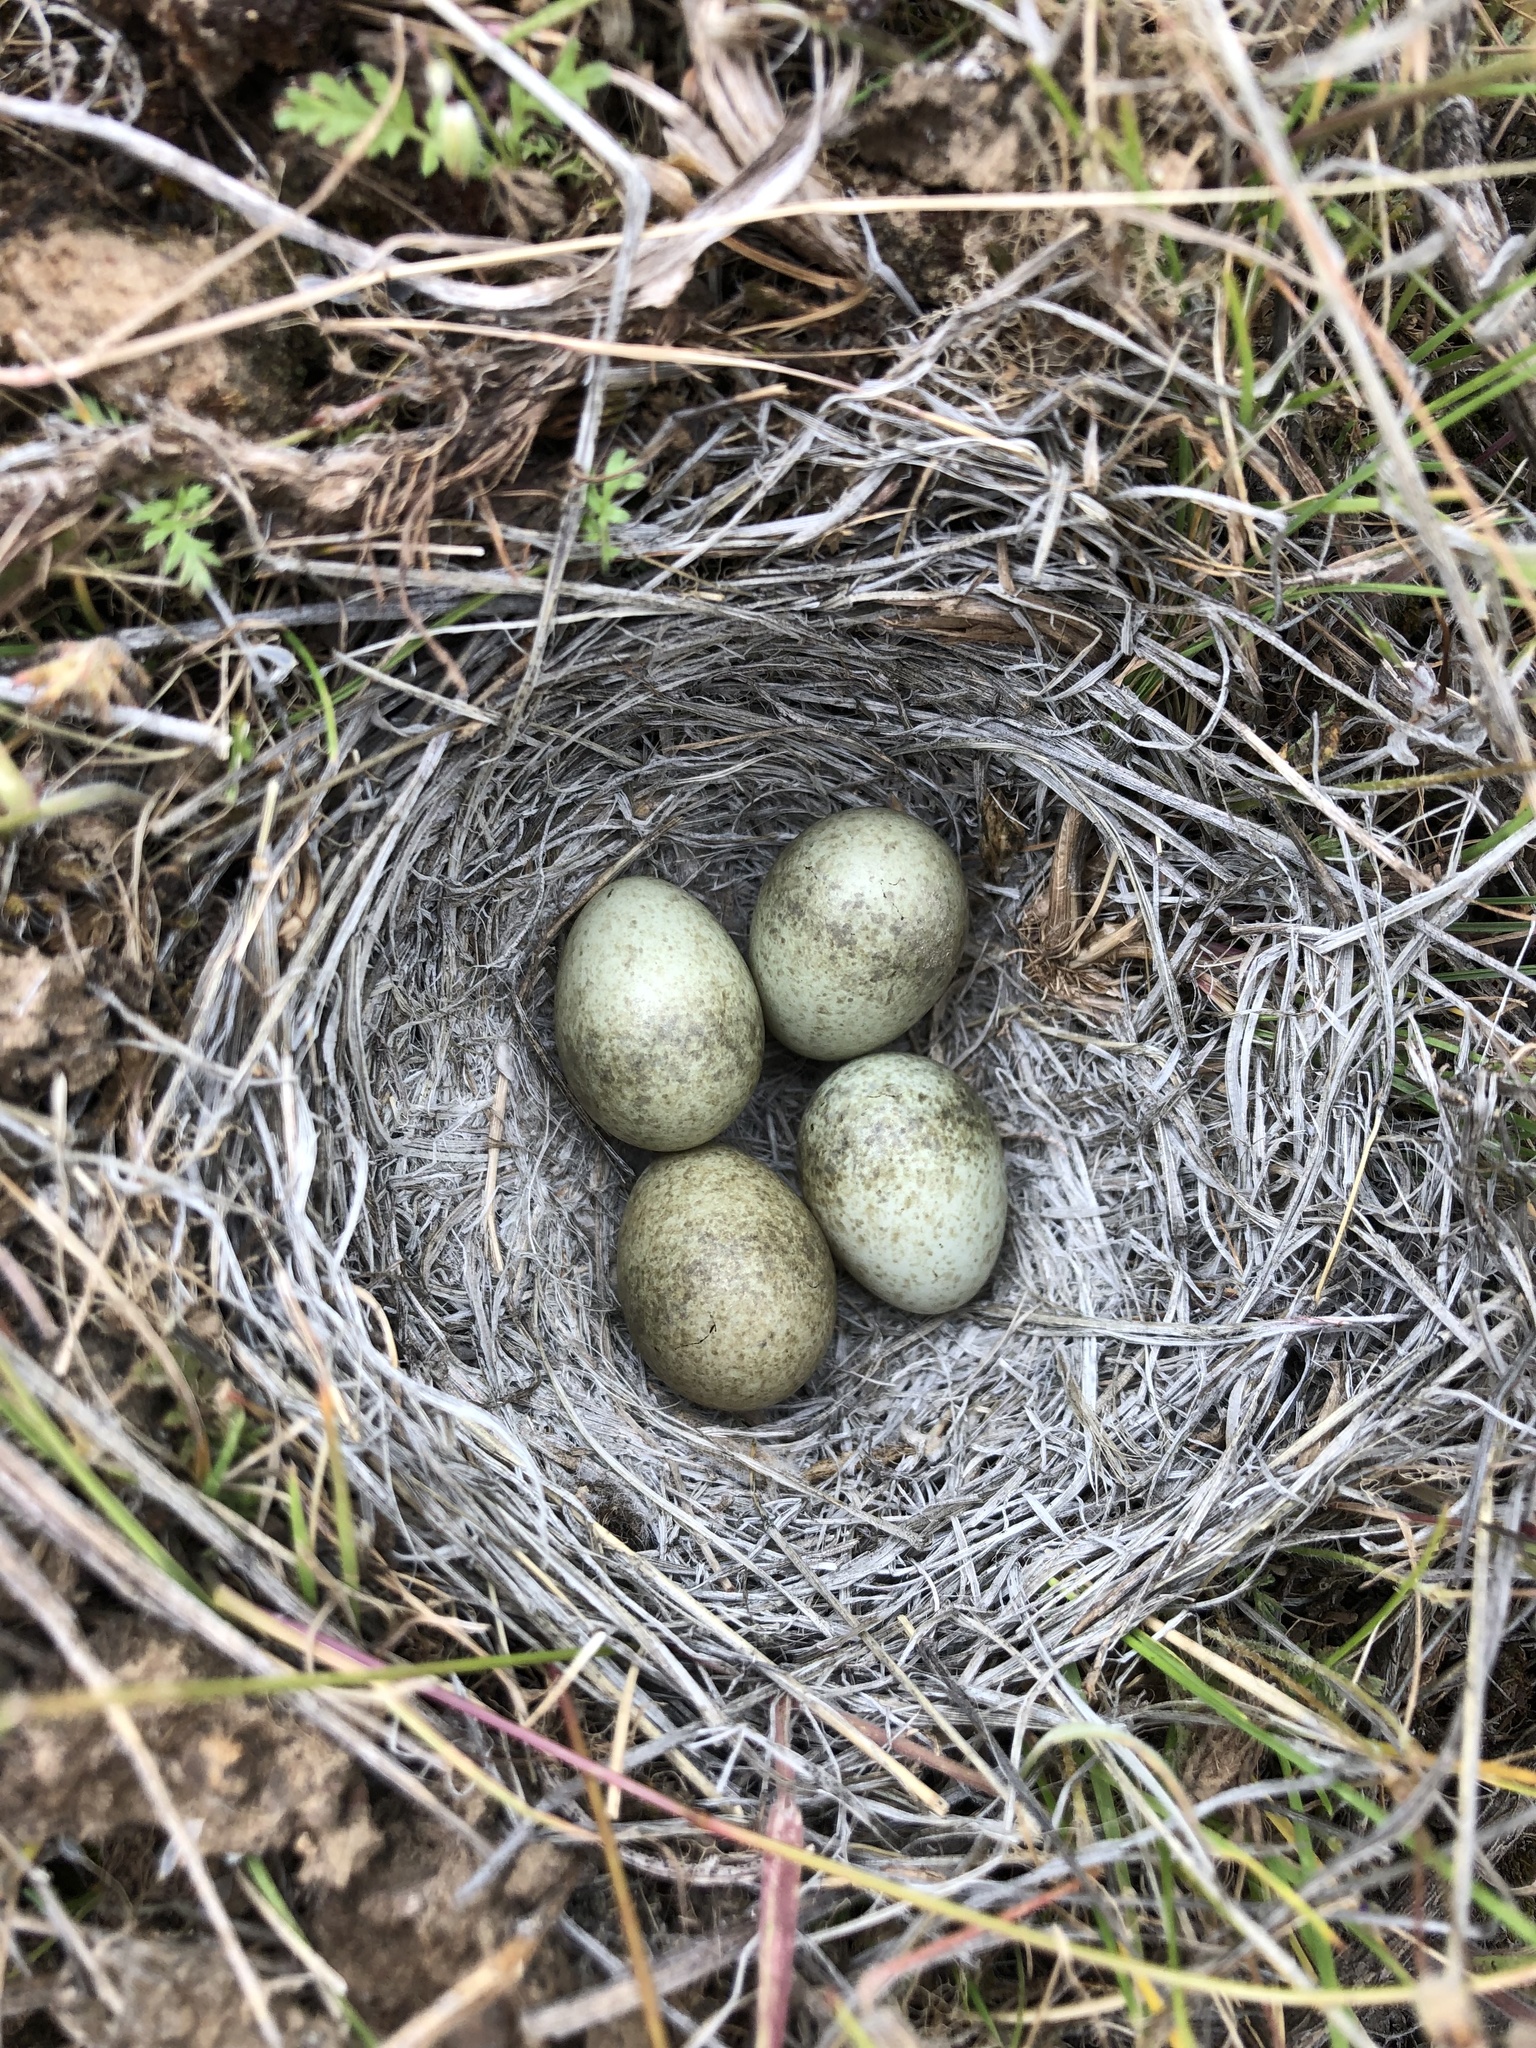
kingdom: Animalia
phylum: Chordata
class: Aves
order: Passeriformes
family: Alaudidae
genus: Eremophila
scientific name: Eremophila alpestris
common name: Horned lark
